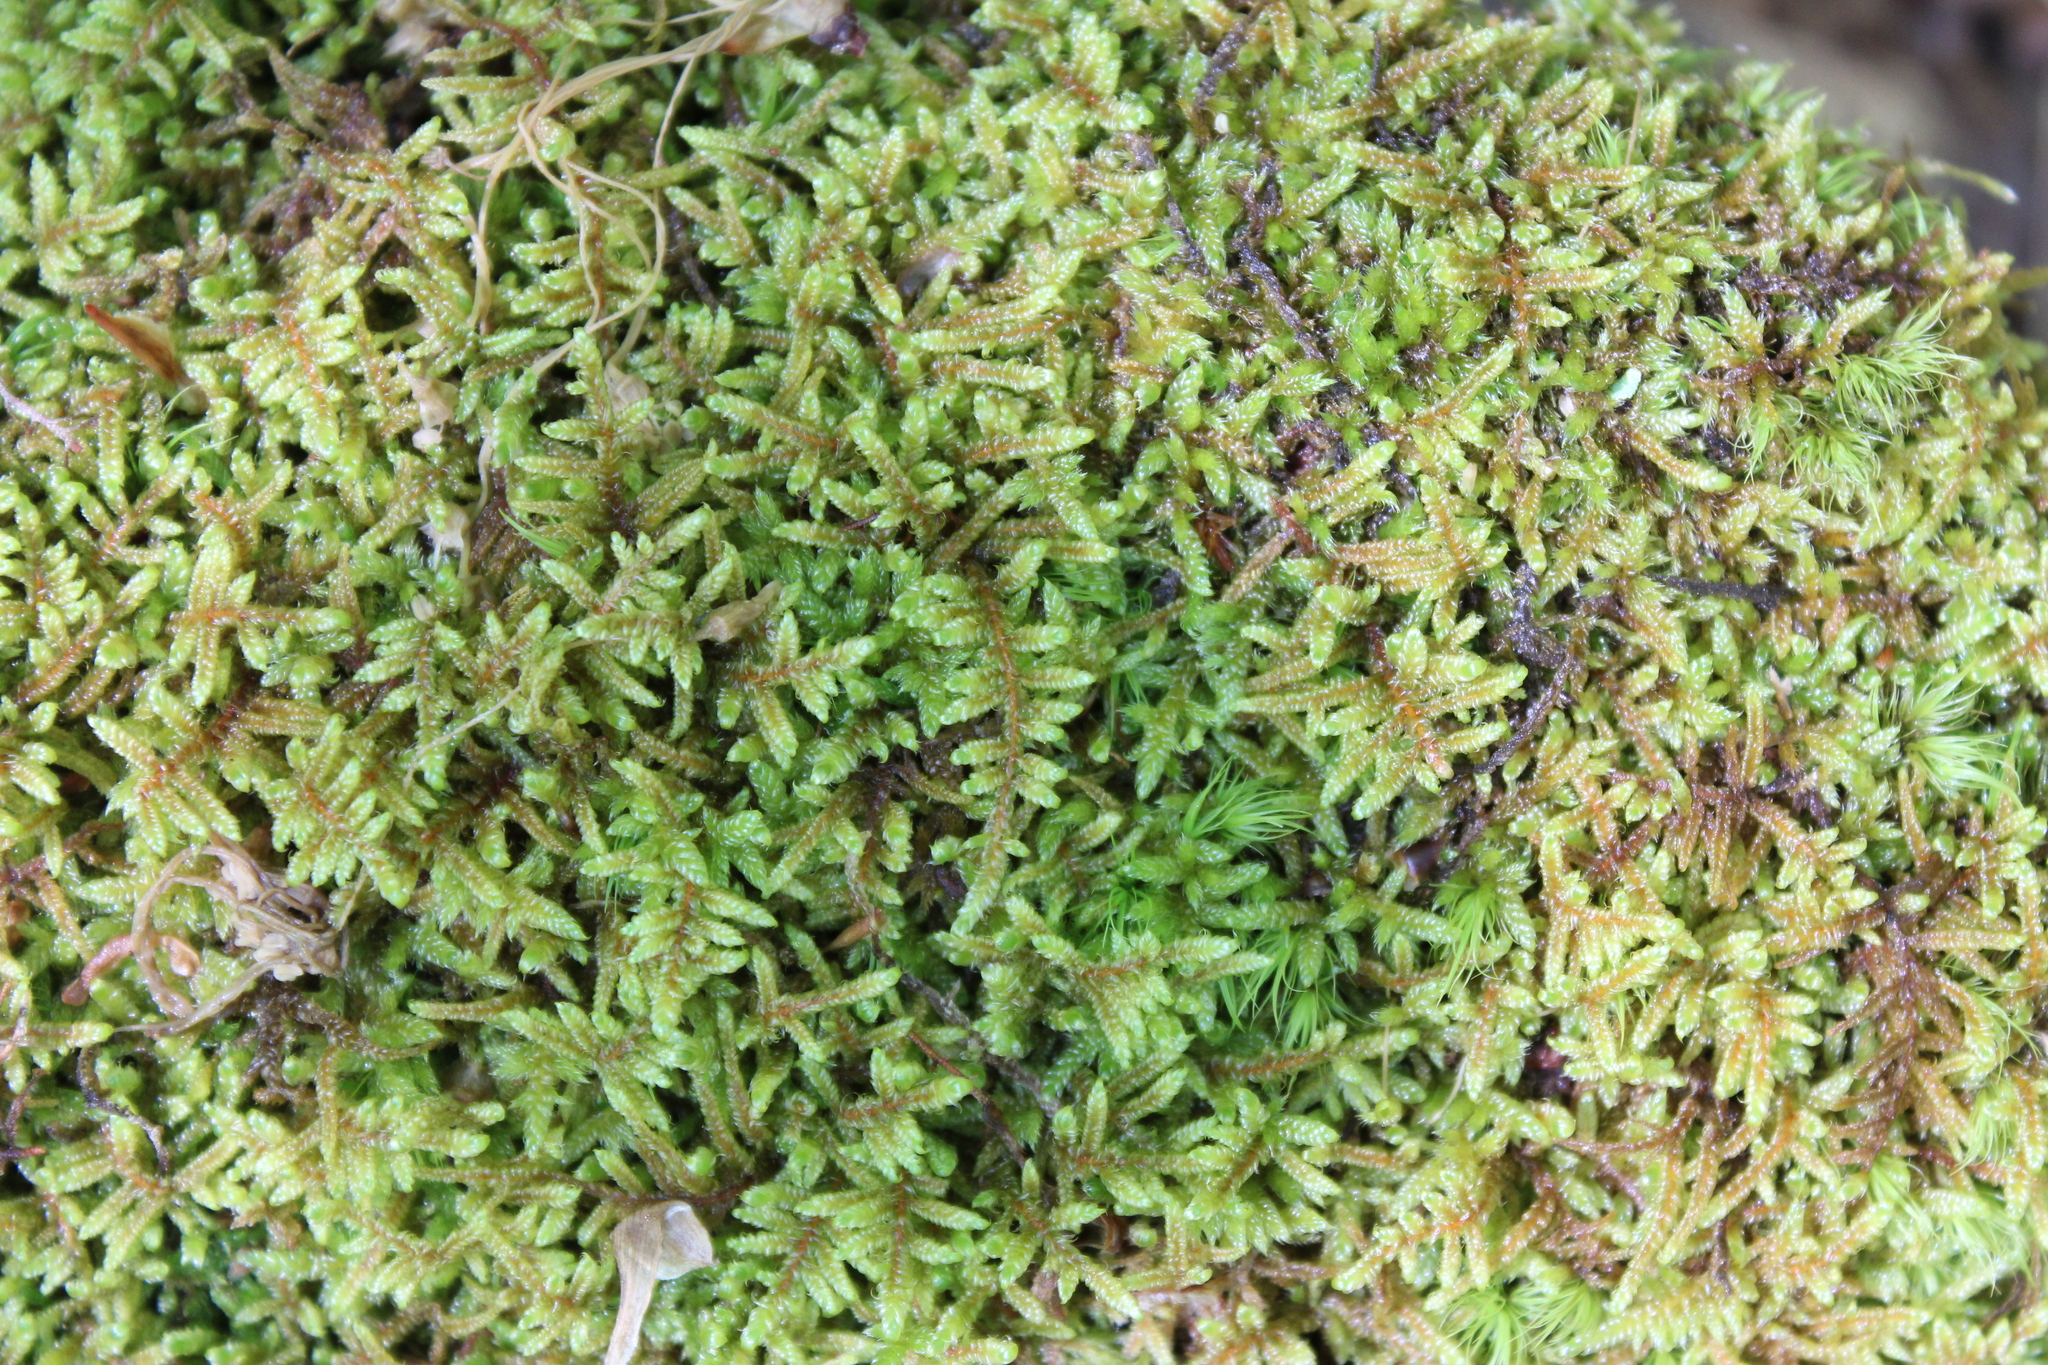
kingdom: Plantae
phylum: Bryophyta
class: Bryopsida
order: Hypnales
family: Callicladiaceae
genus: Callicladium
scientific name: Callicladium imponens
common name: Brocade moss
